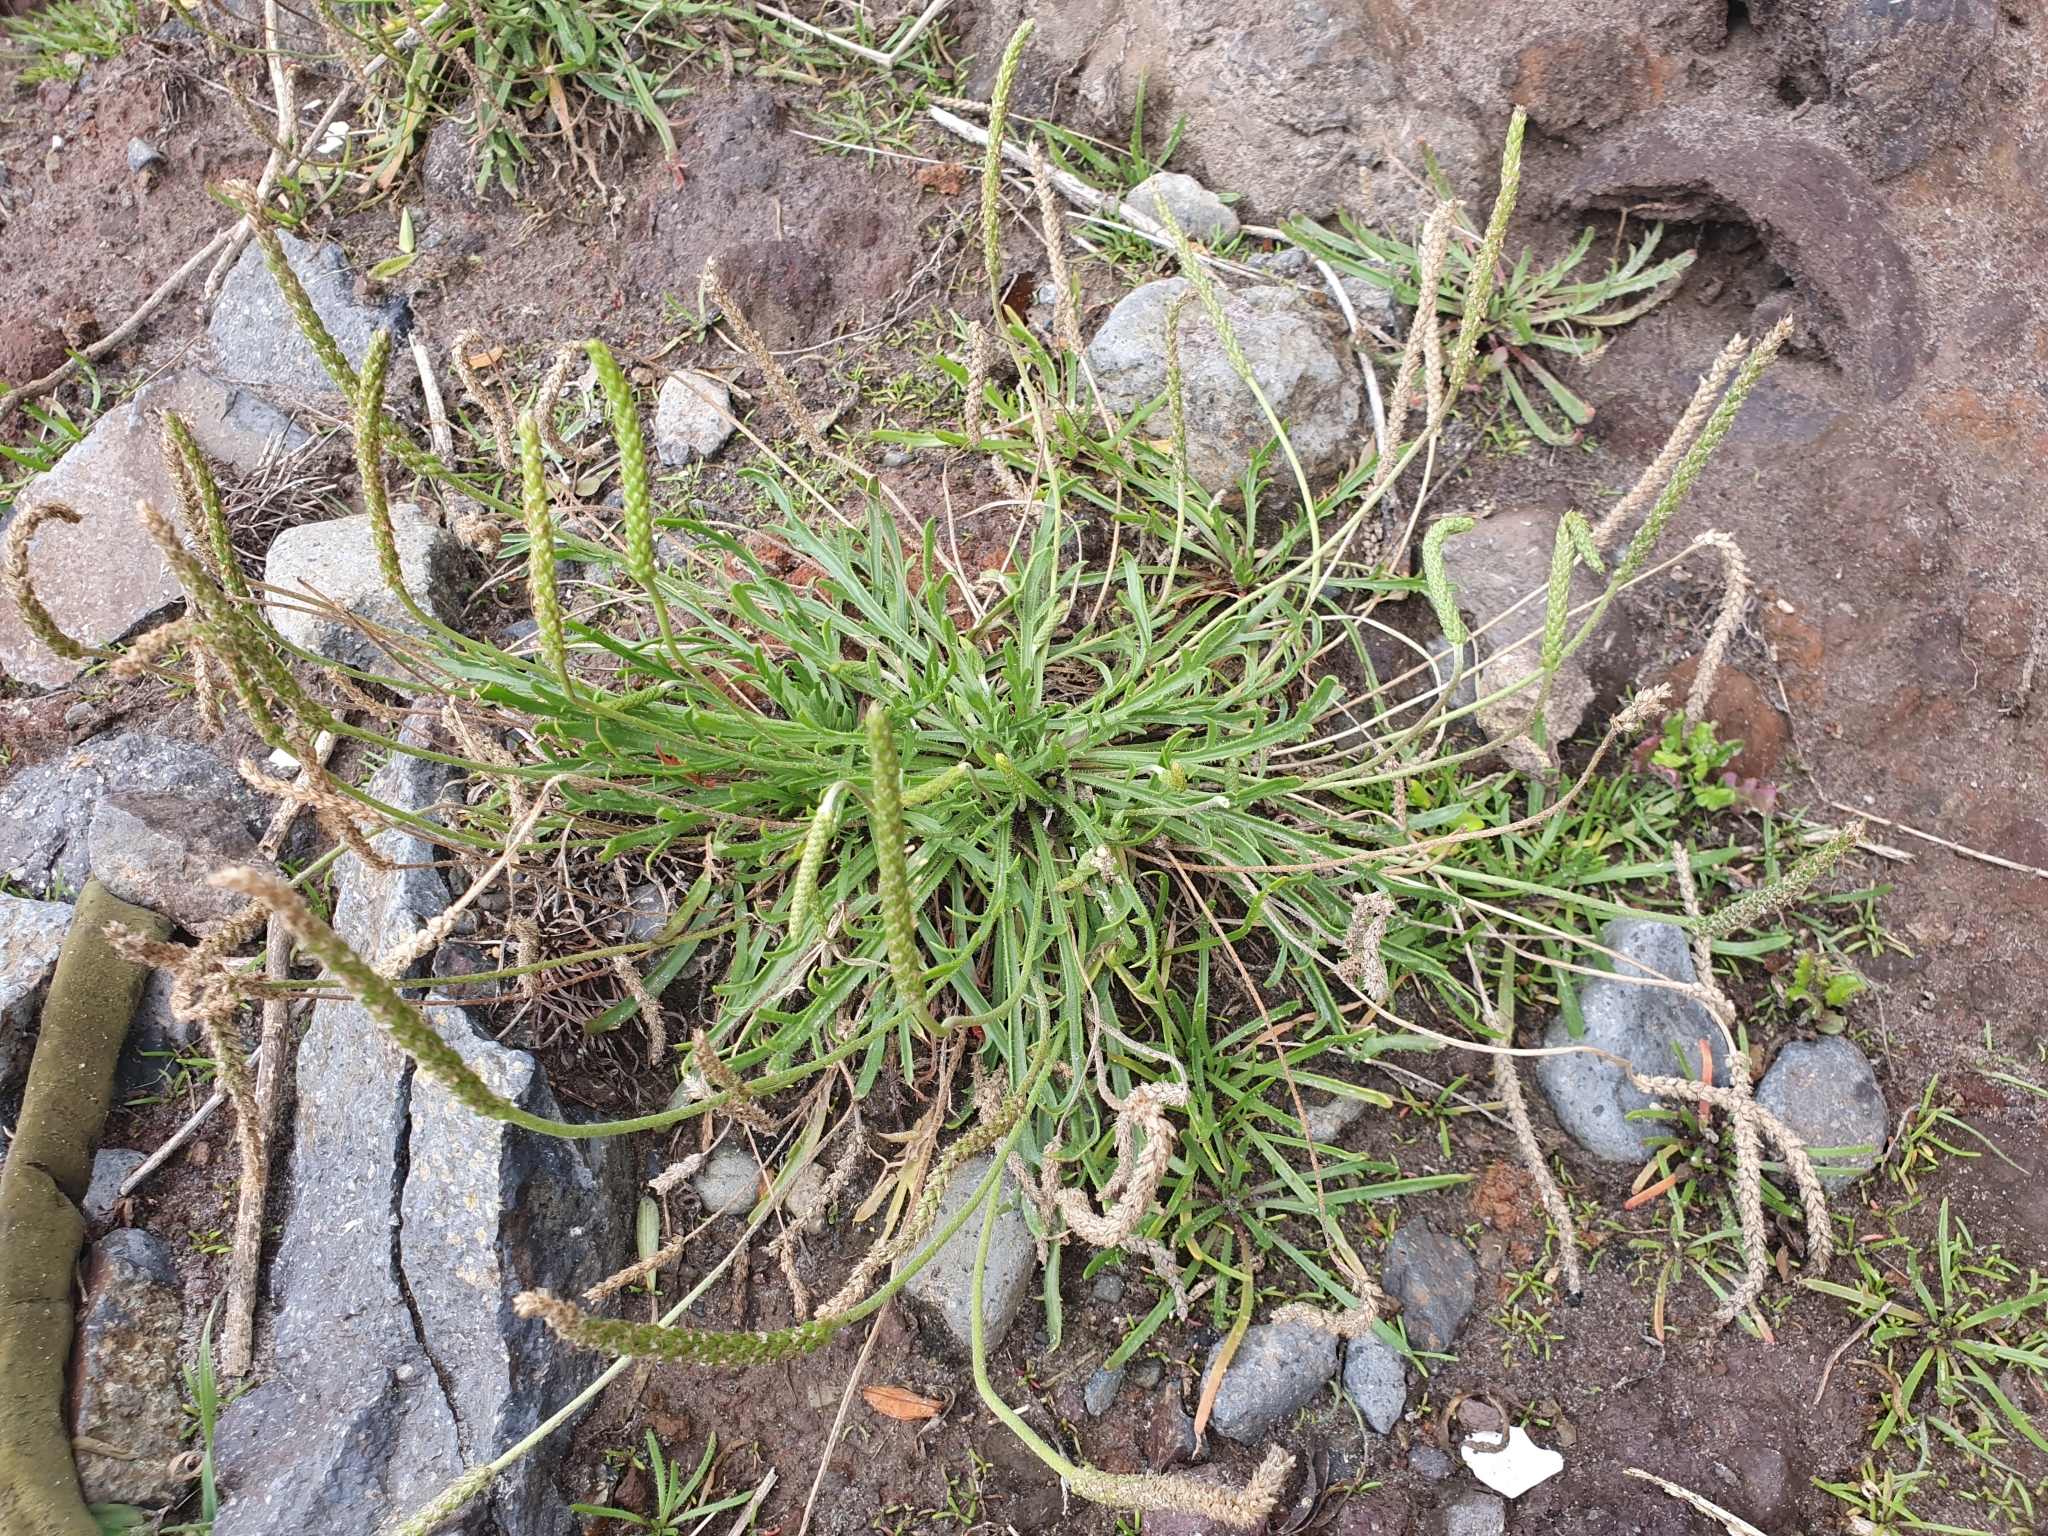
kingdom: Plantae
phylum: Tracheophyta
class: Magnoliopsida
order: Lamiales
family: Plantaginaceae
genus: Plantago
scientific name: Plantago coronopus
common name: Buck's-horn plantain
